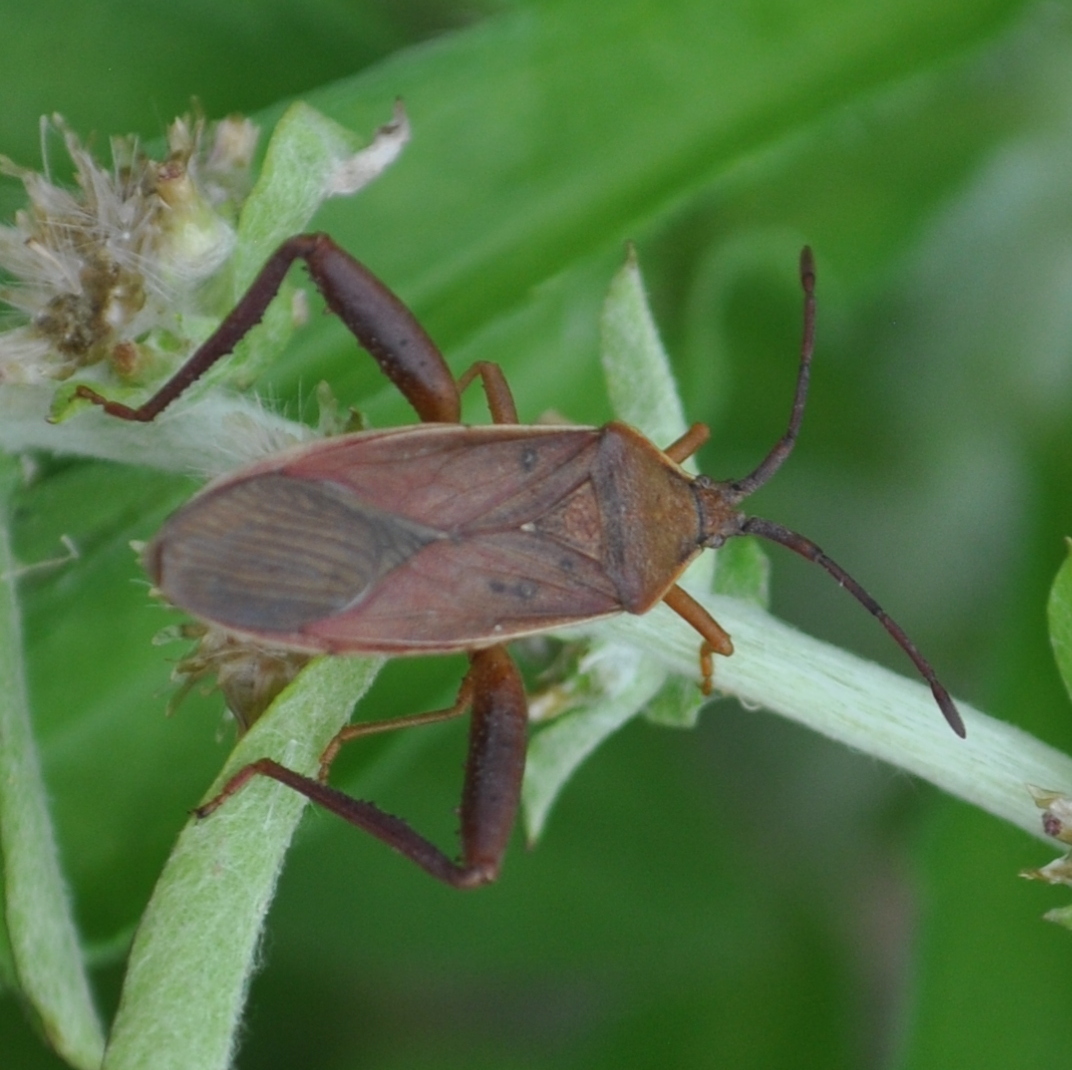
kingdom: Animalia
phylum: Arthropoda
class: Insecta
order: Hemiptera
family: Coreidae
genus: Athaumastus
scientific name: Athaumastus haematicus
